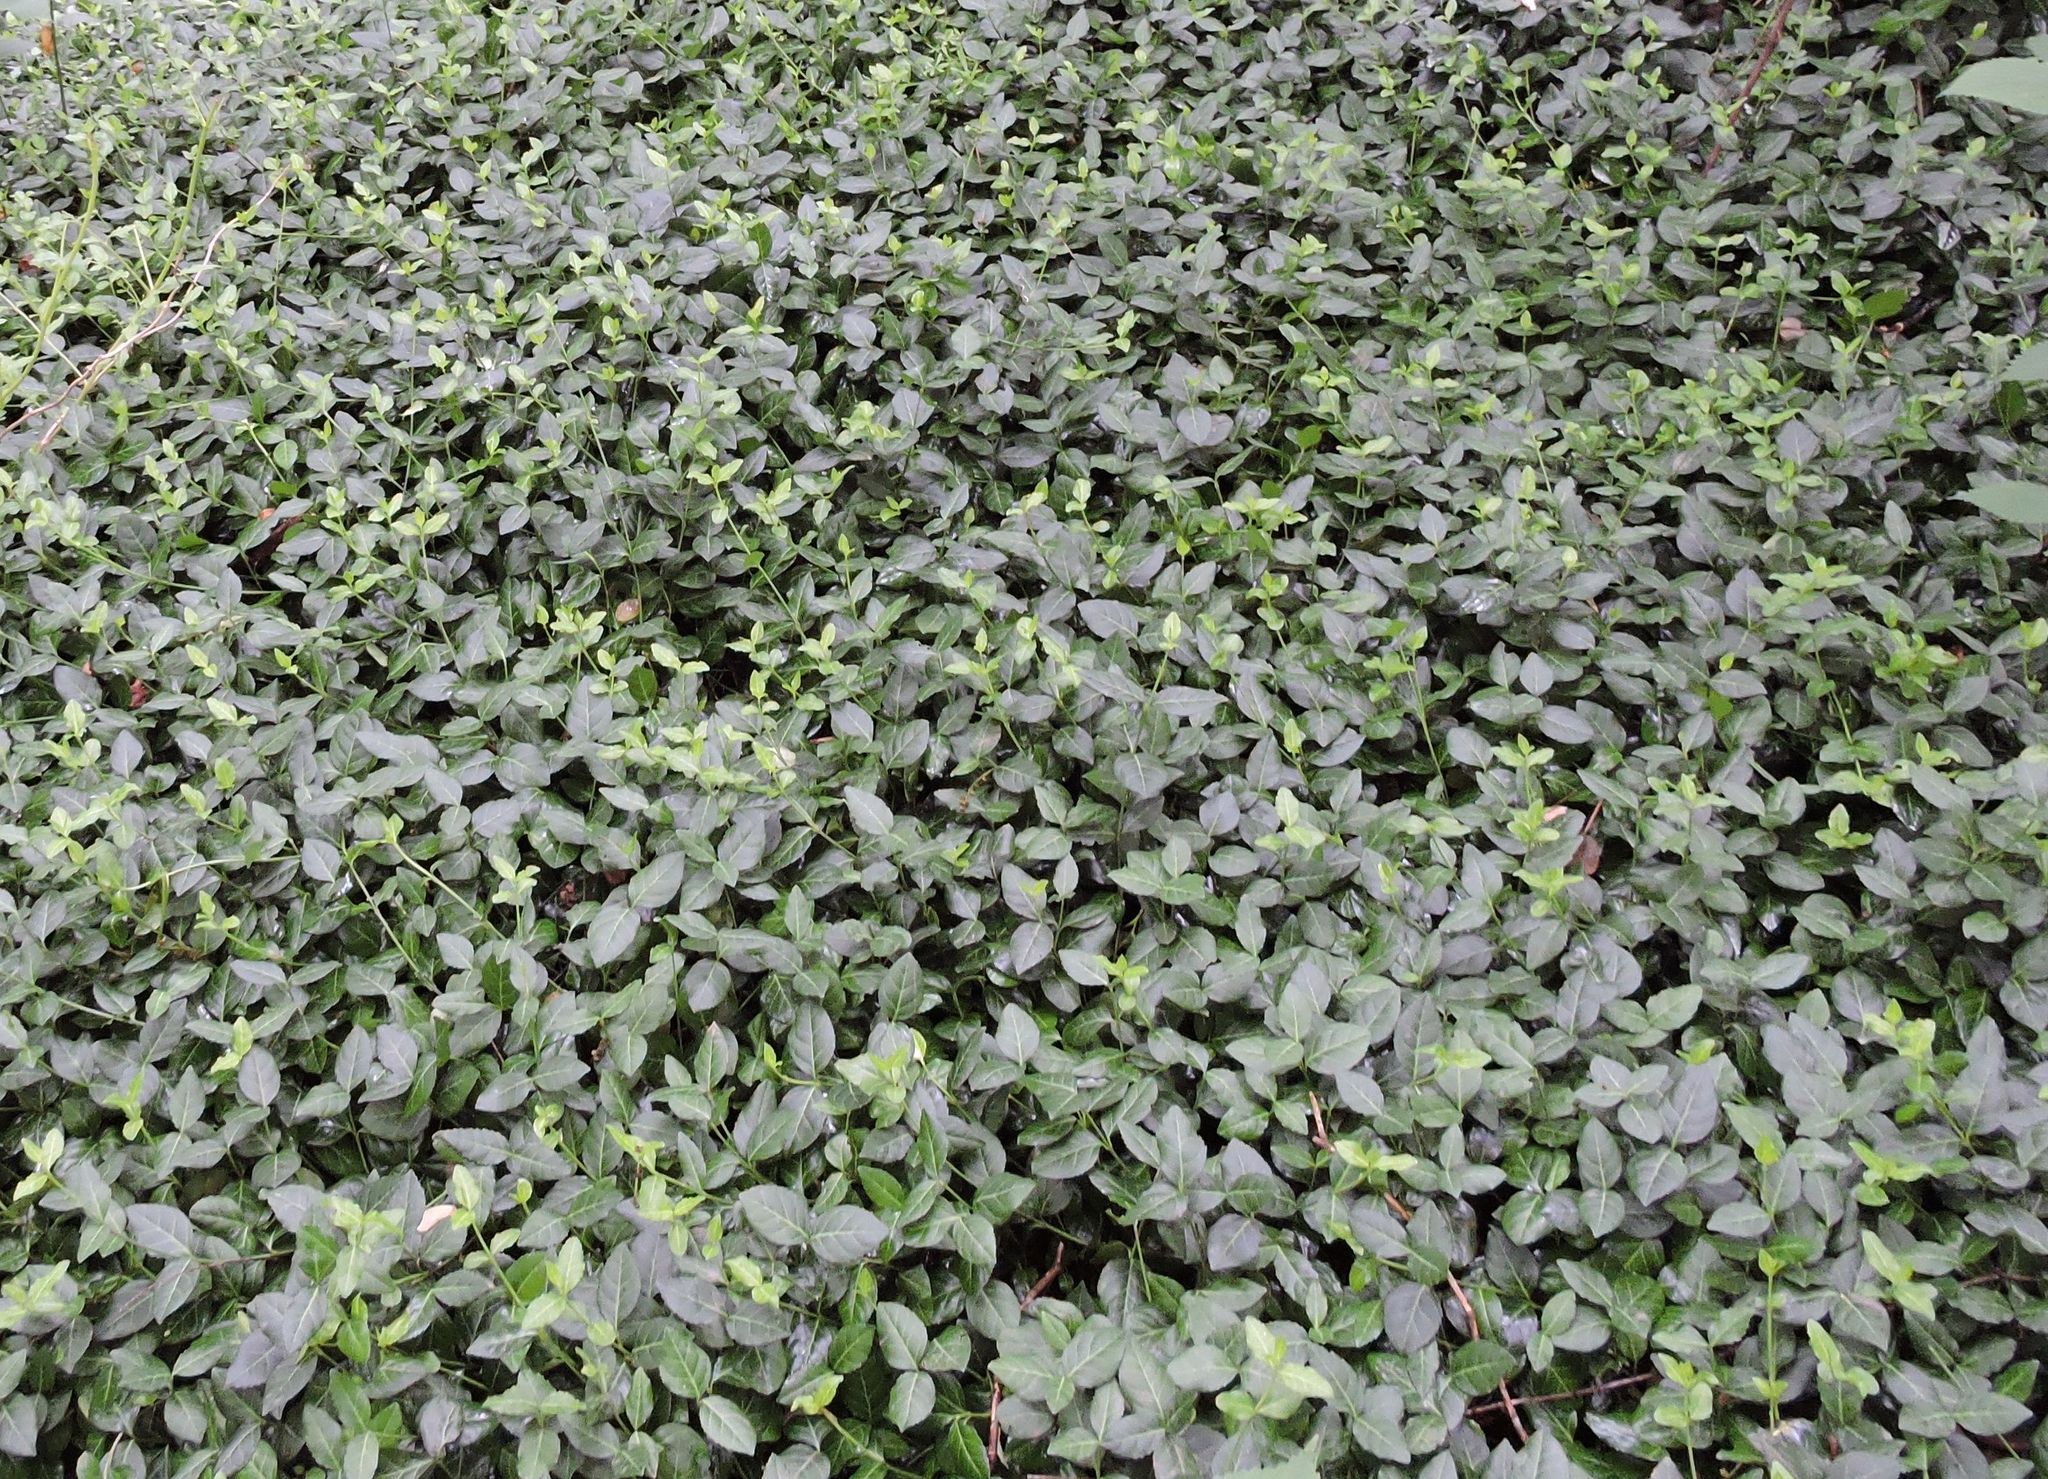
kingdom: Plantae
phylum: Tracheophyta
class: Magnoliopsida
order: Celastrales
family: Celastraceae
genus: Euonymus
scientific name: Euonymus fortunei
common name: Climbing euonymus
